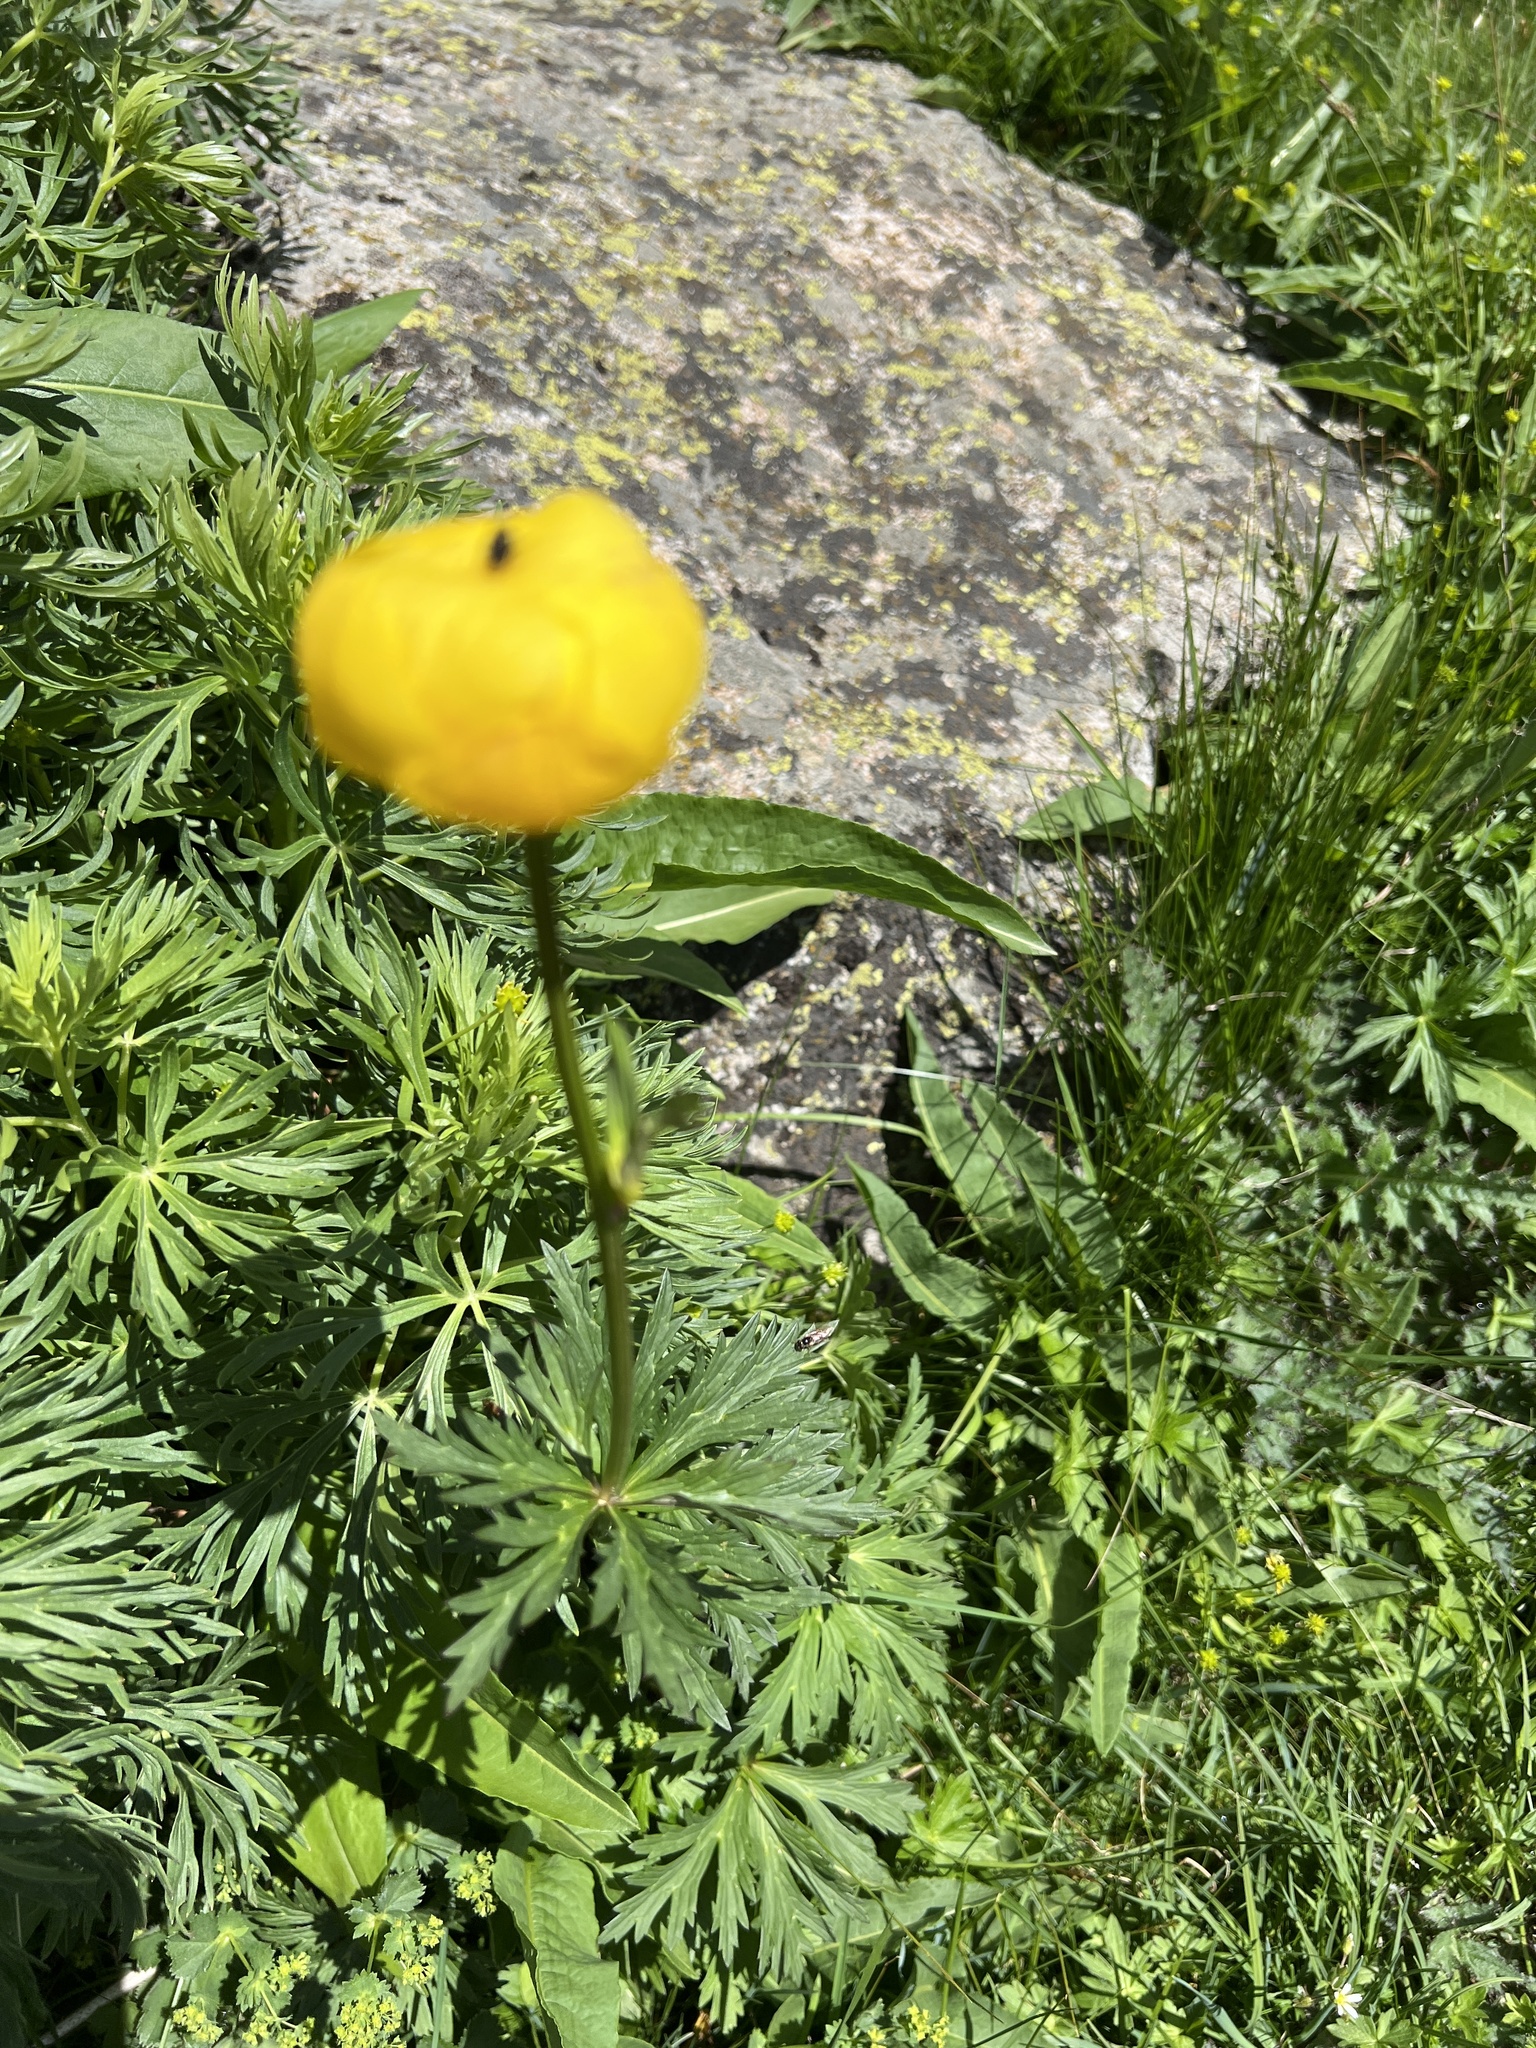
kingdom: Plantae
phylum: Tracheophyta
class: Magnoliopsida
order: Ranunculales
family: Ranunculaceae
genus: Trollius
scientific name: Trollius europaeus
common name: European globeflower
